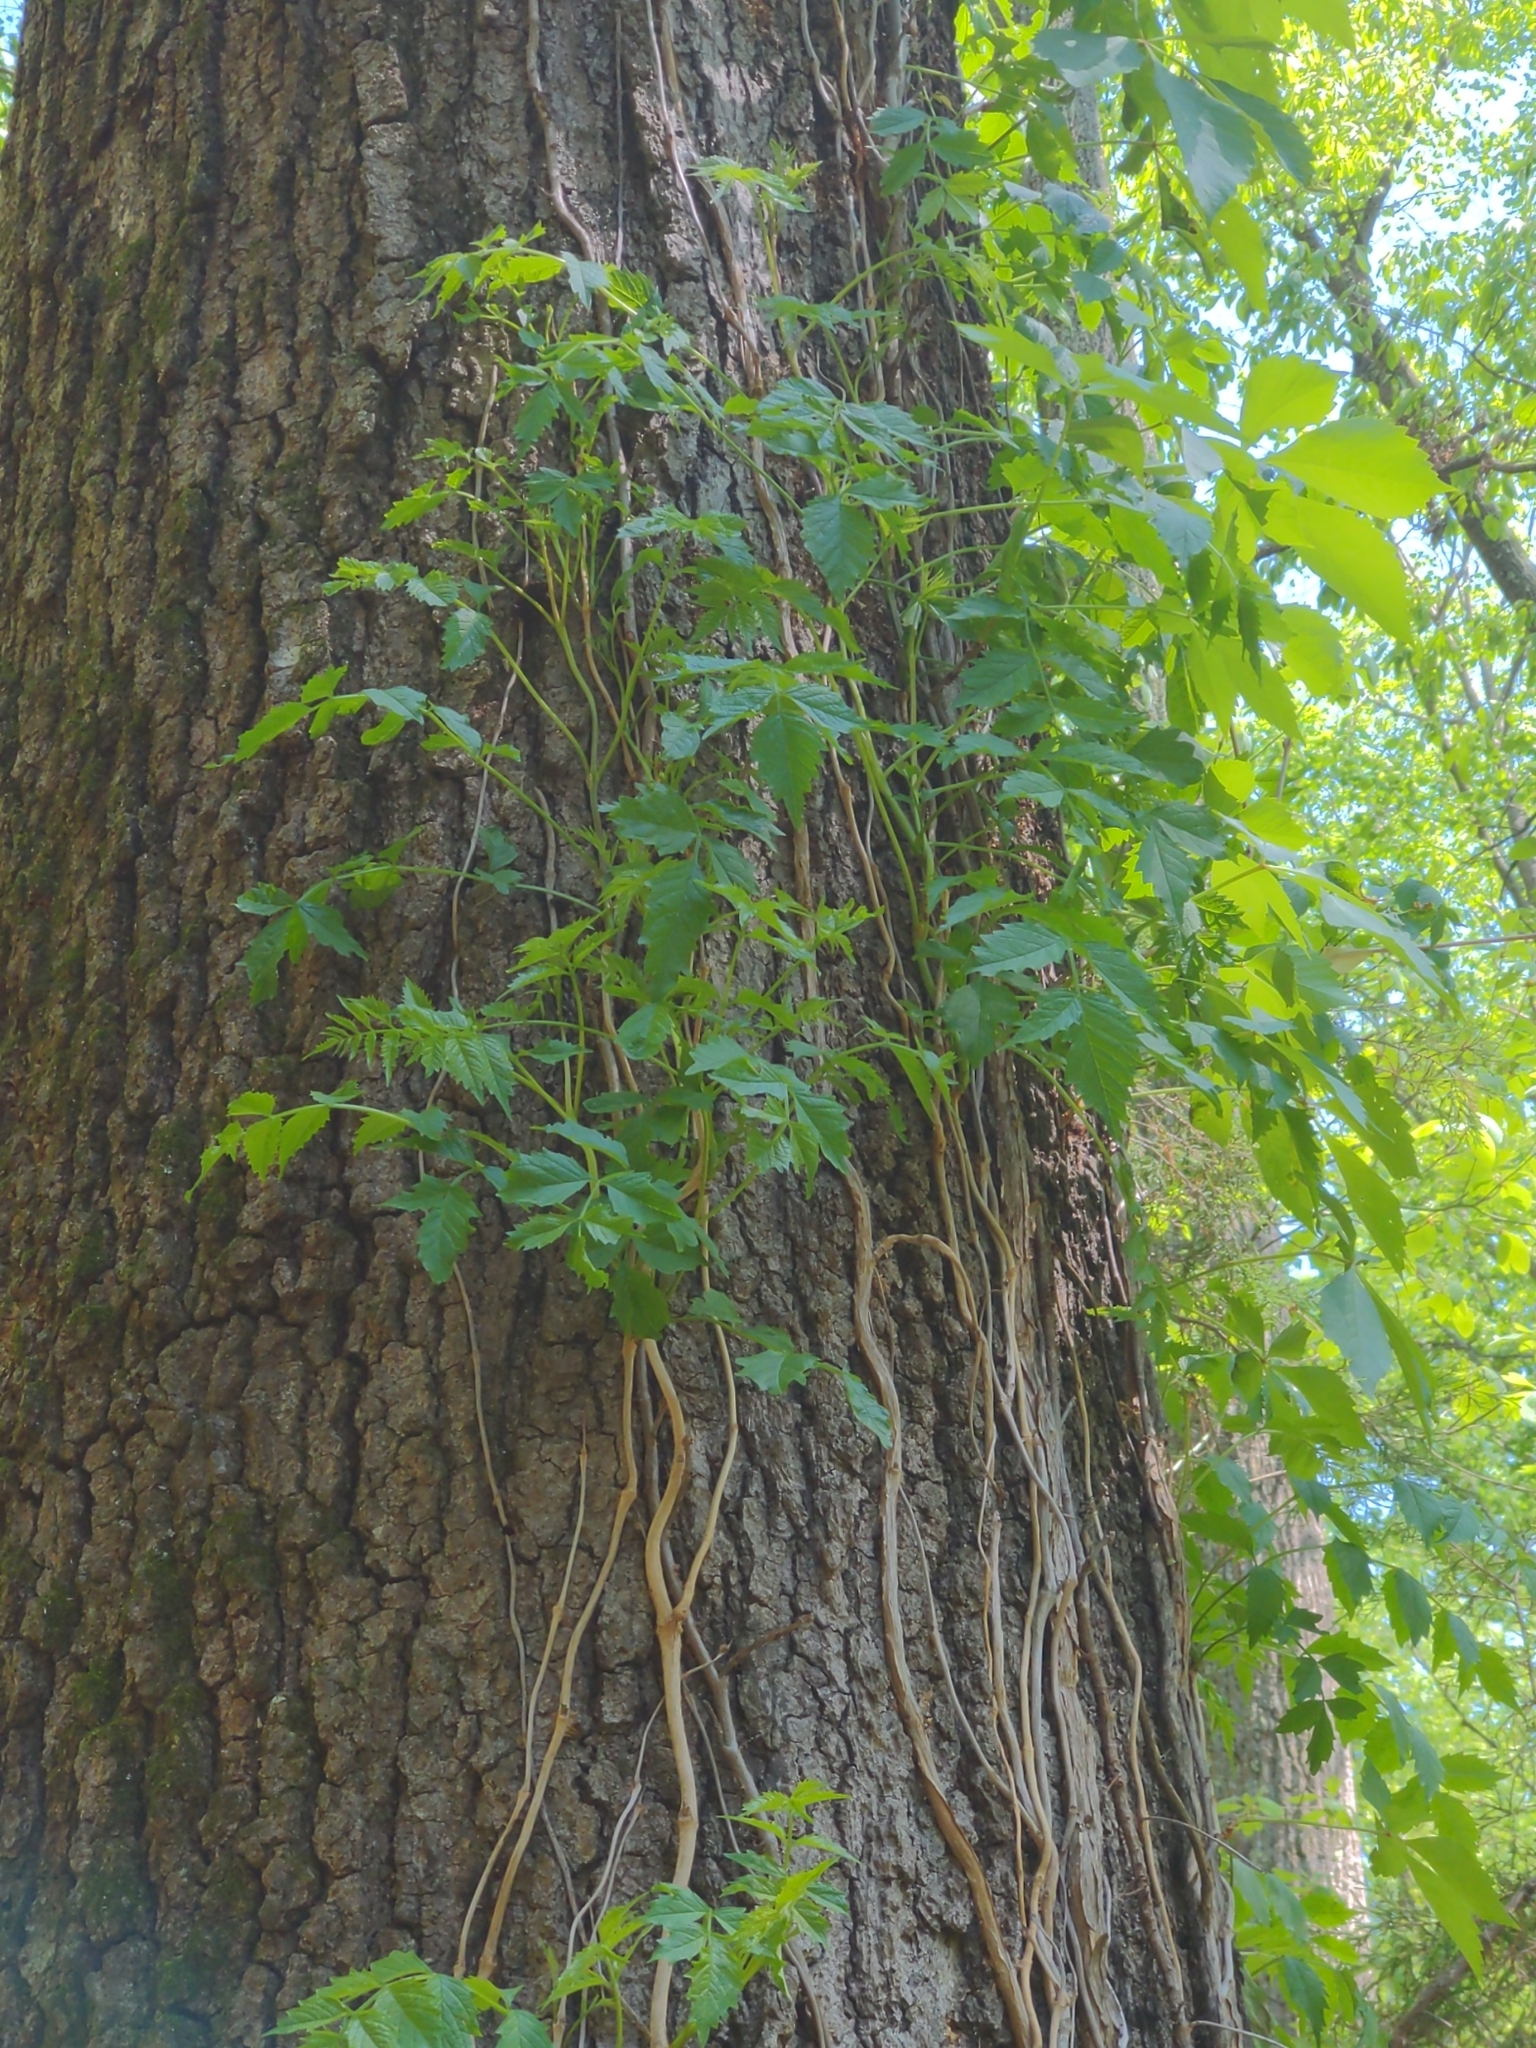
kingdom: Plantae
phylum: Tracheophyta
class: Magnoliopsida
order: Lamiales
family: Bignoniaceae
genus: Campsis
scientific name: Campsis radicans
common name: Trumpet-creeper
